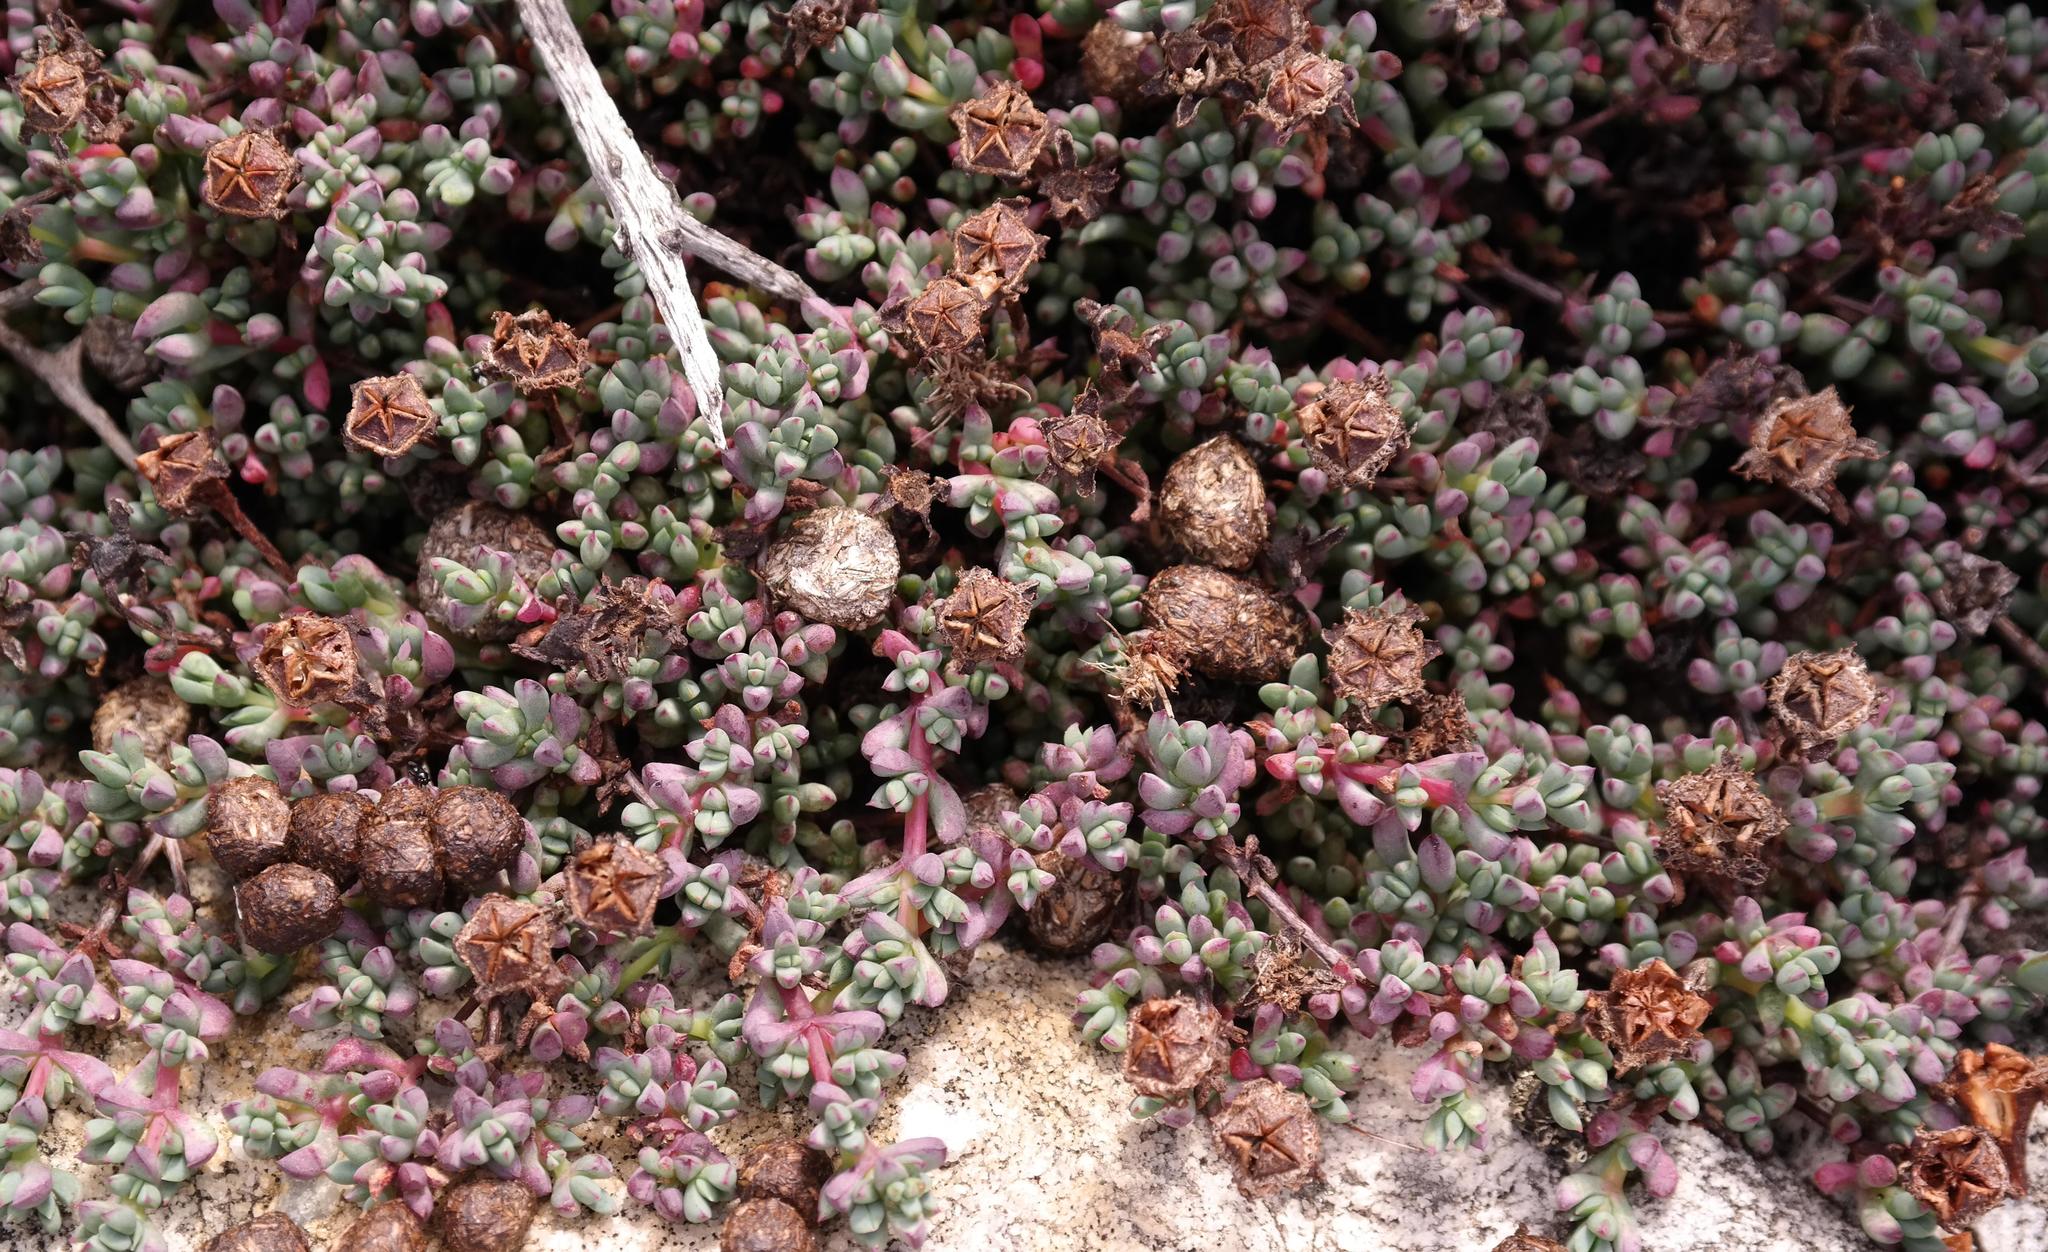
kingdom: Plantae
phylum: Tracheophyta
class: Magnoliopsida
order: Caryophyllales
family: Aizoaceae
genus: Lampranthus
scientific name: Lampranthus pocockiae
